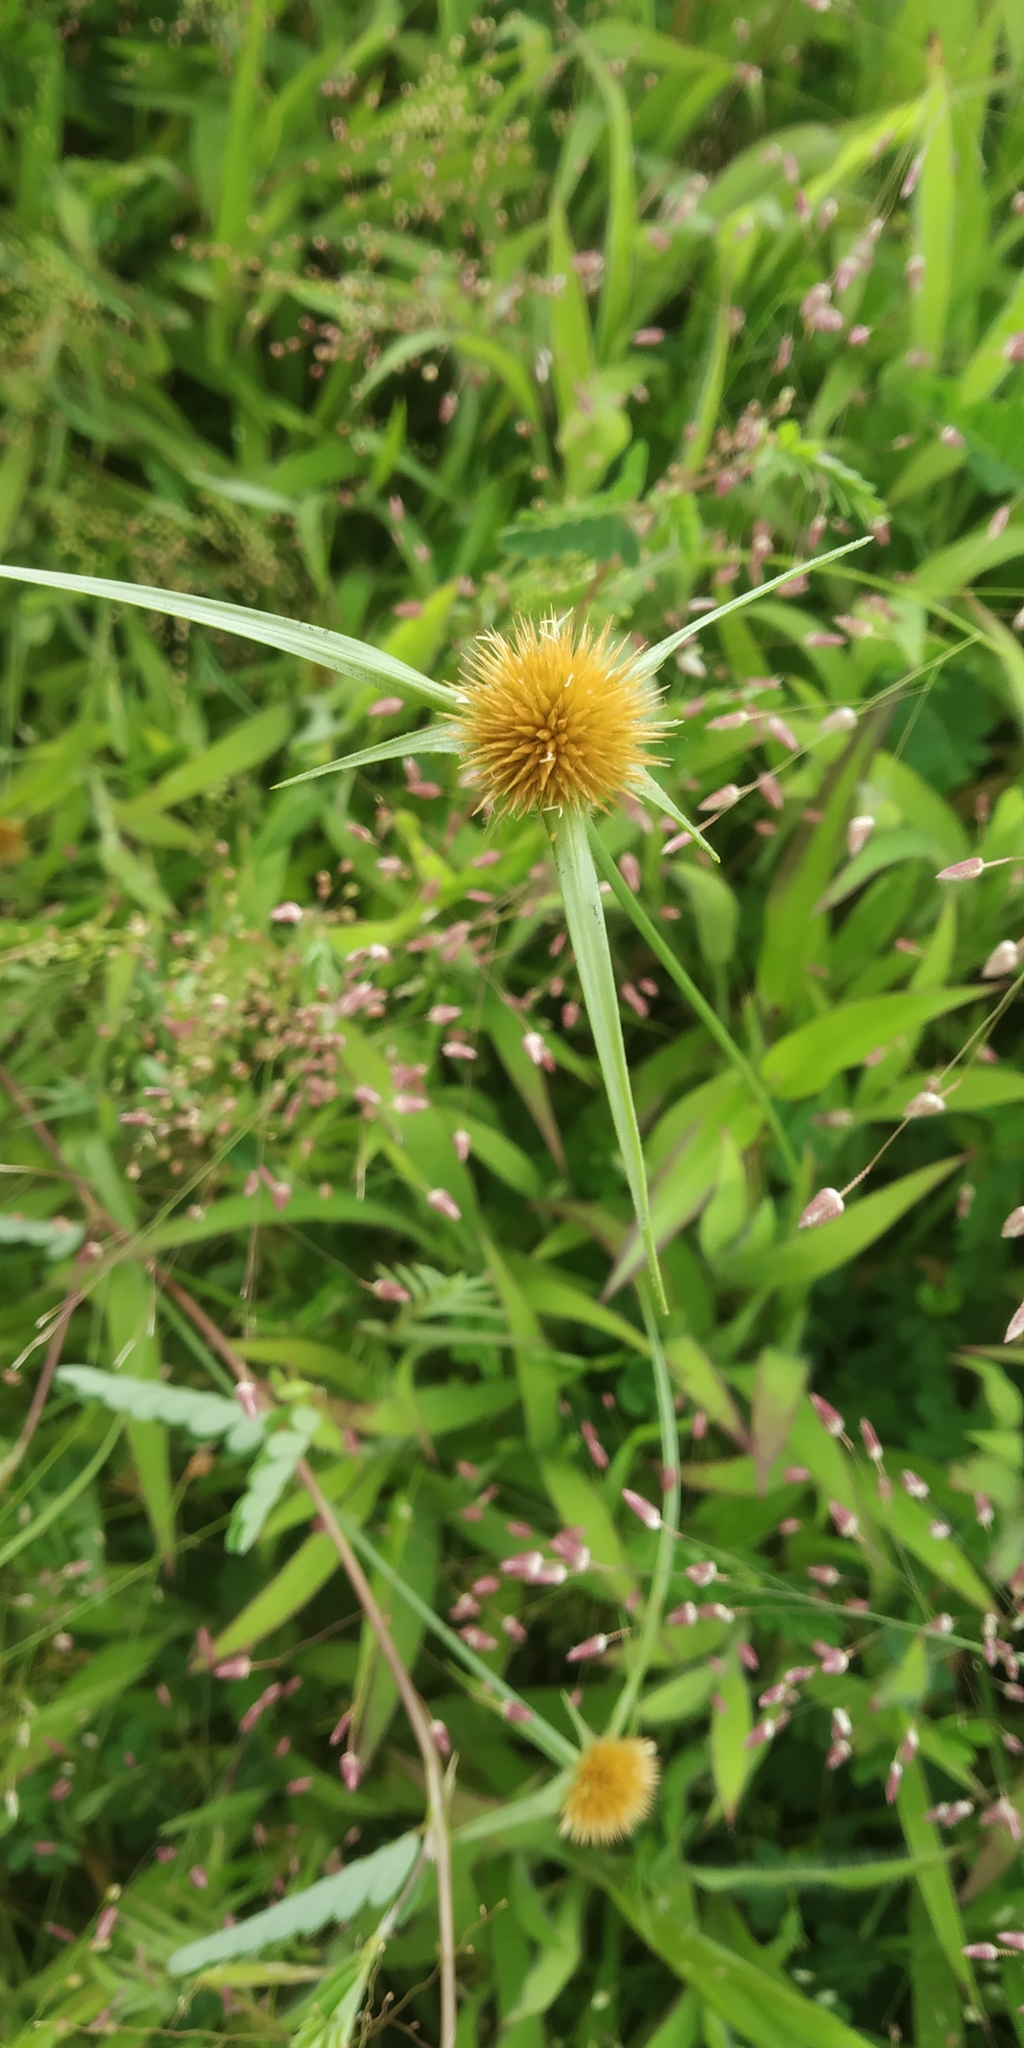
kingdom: Plantae
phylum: Tracheophyta
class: Liliopsida
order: Poales
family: Cyperaceae
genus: Rhynchospora
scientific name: Rhynchospora wightiana
